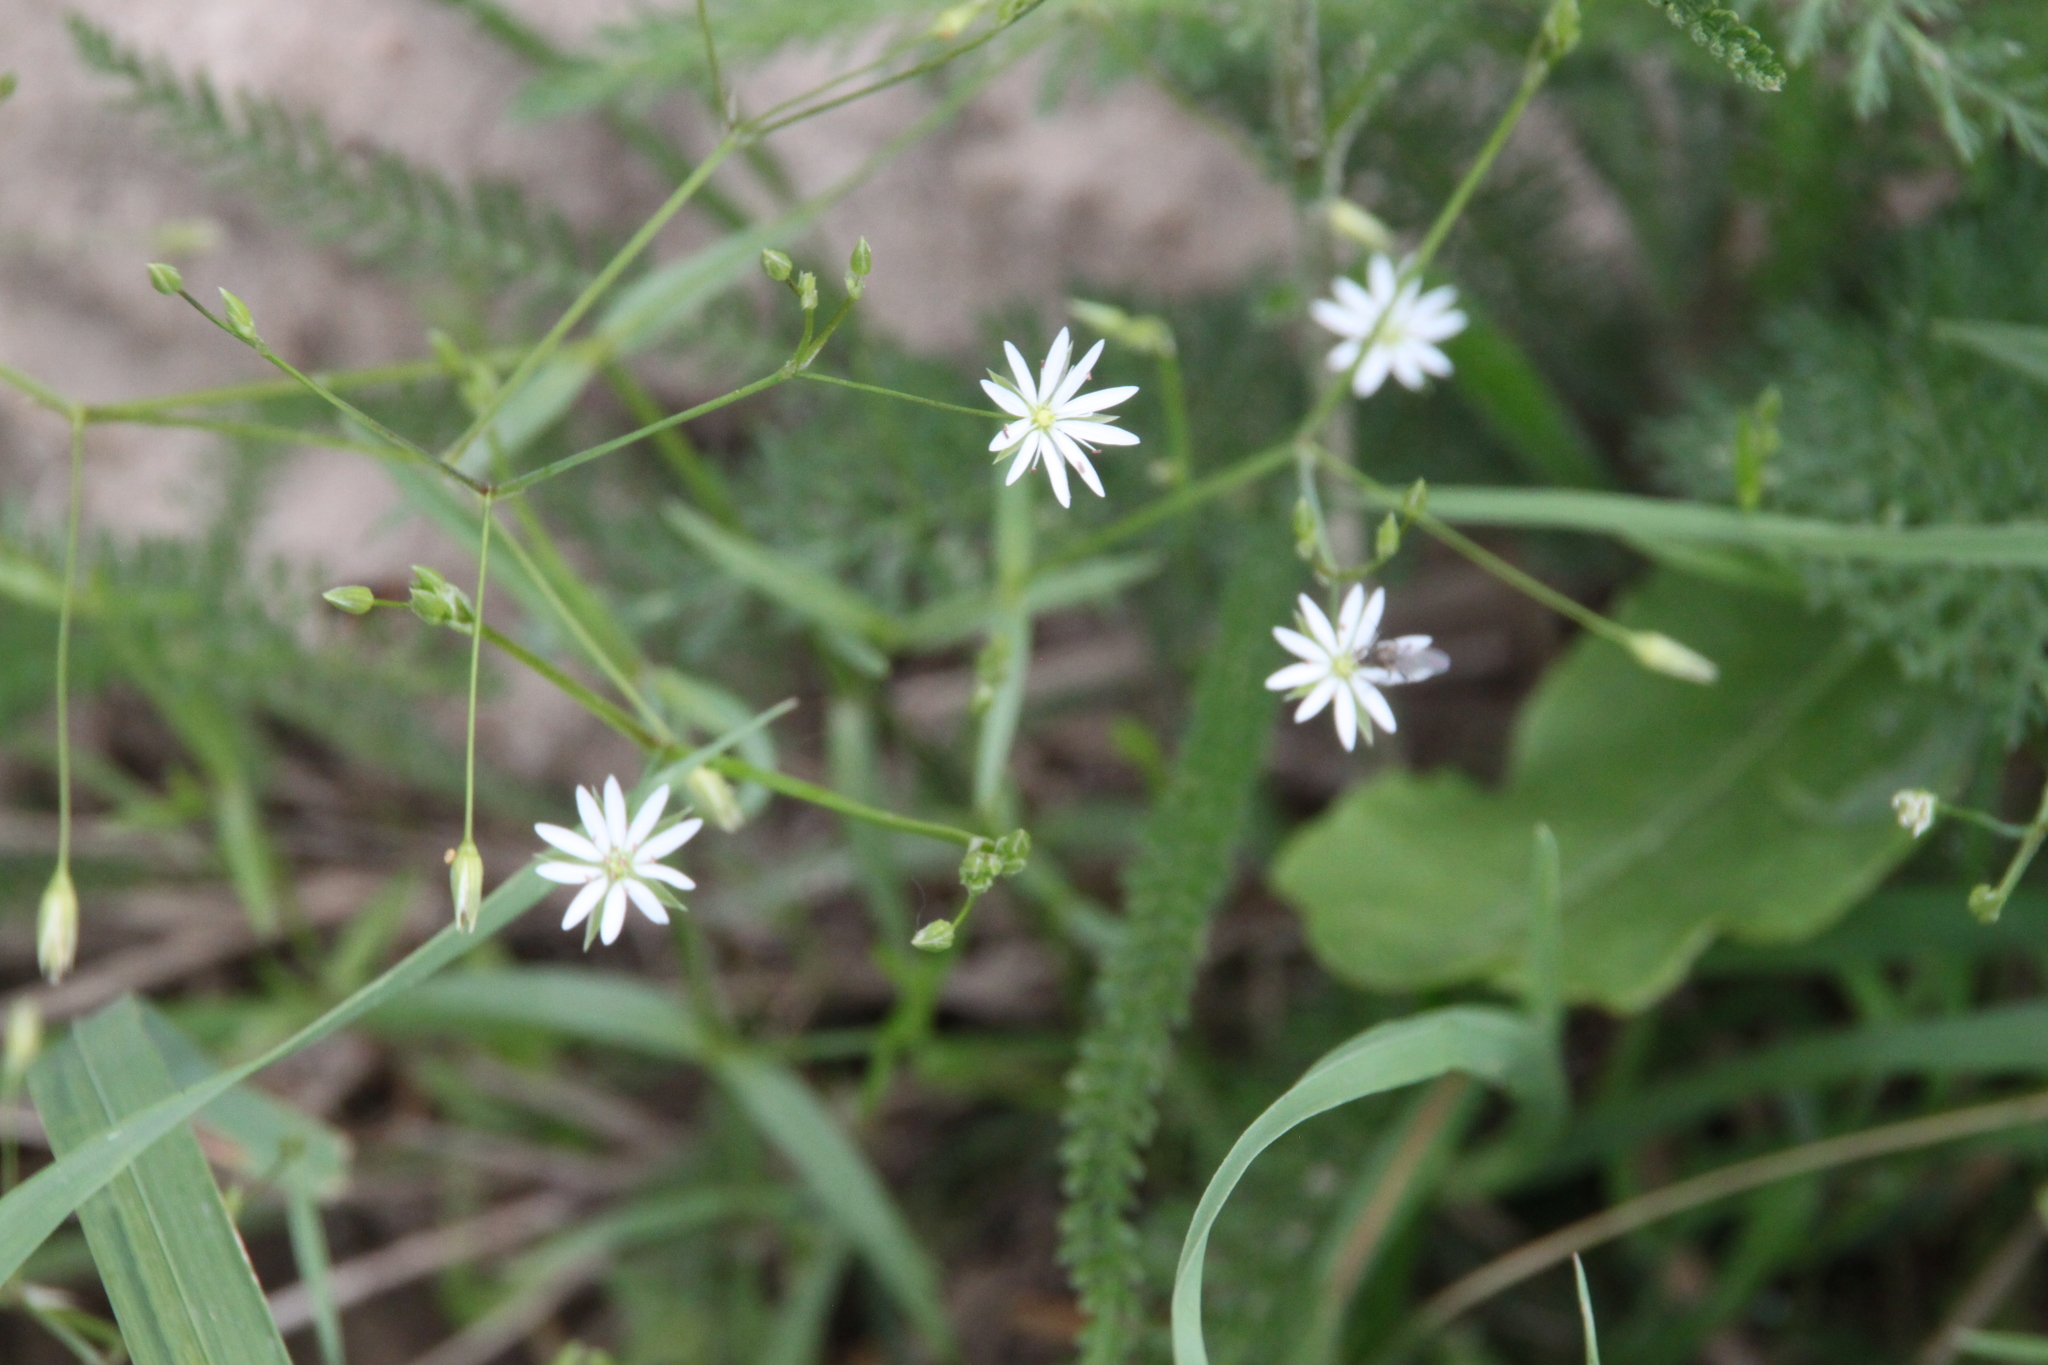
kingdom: Plantae
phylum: Tracheophyta
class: Magnoliopsida
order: Caryophyllales
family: Caryophyllaceae
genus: Stellaria
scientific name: Stellaria graminea
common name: Grass-like starwort
